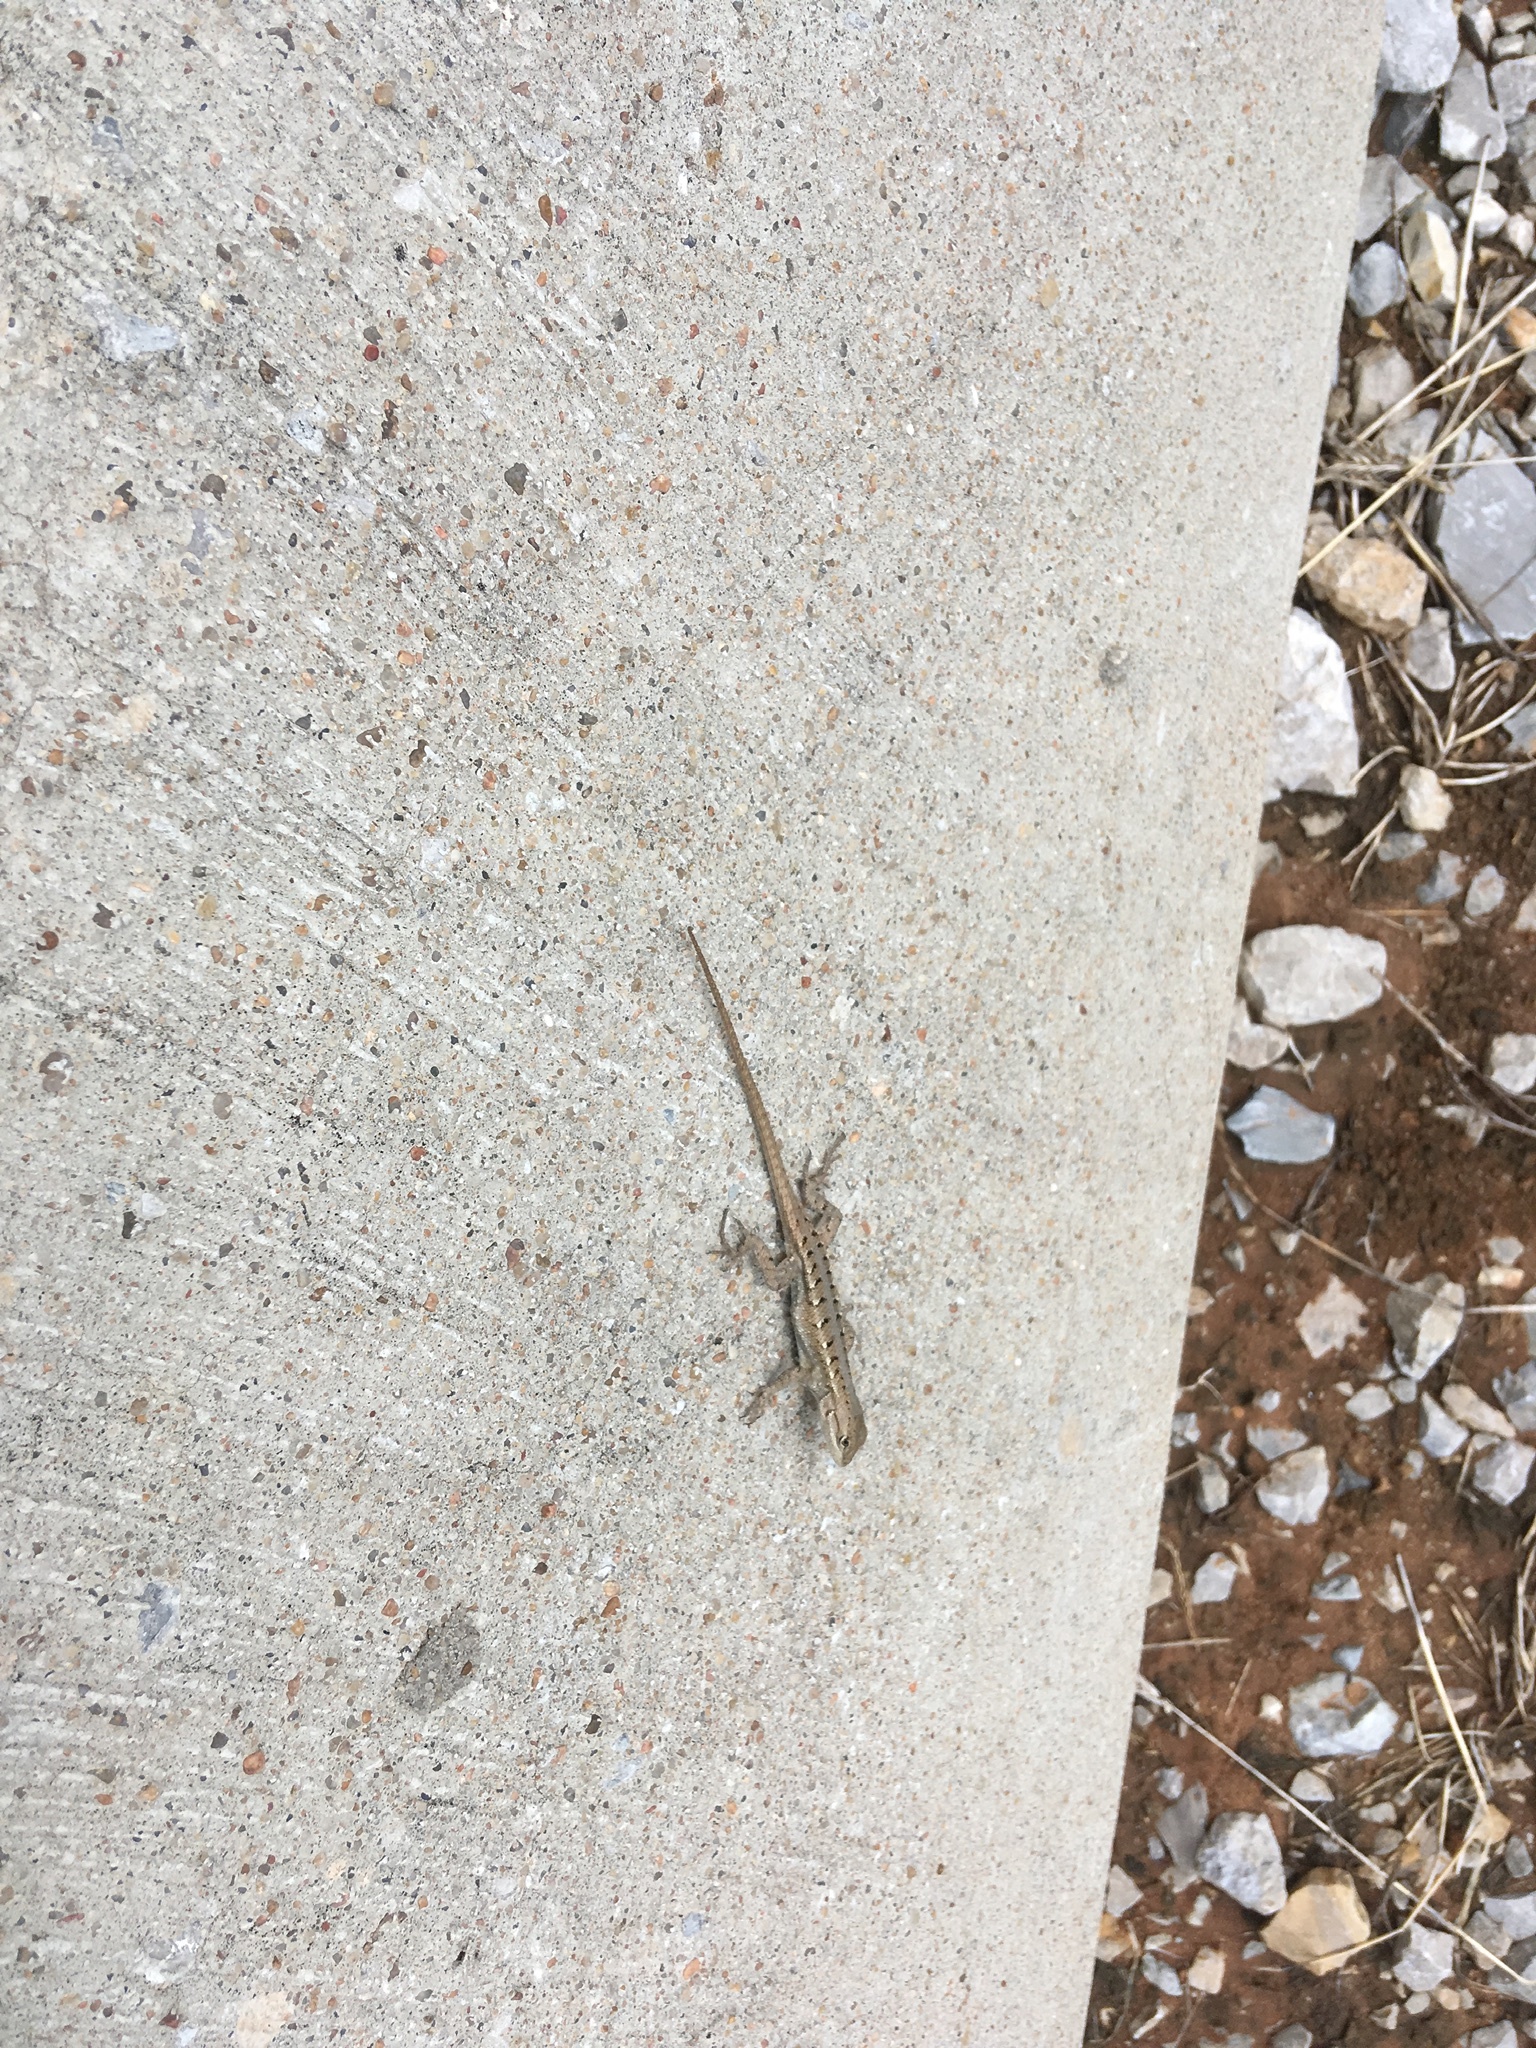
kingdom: Animalia
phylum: Chordata
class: Squamata
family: Phrynosomatidae
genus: Sceloporus
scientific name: Sceloporus consobrinus
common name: Southern prairie lizard
